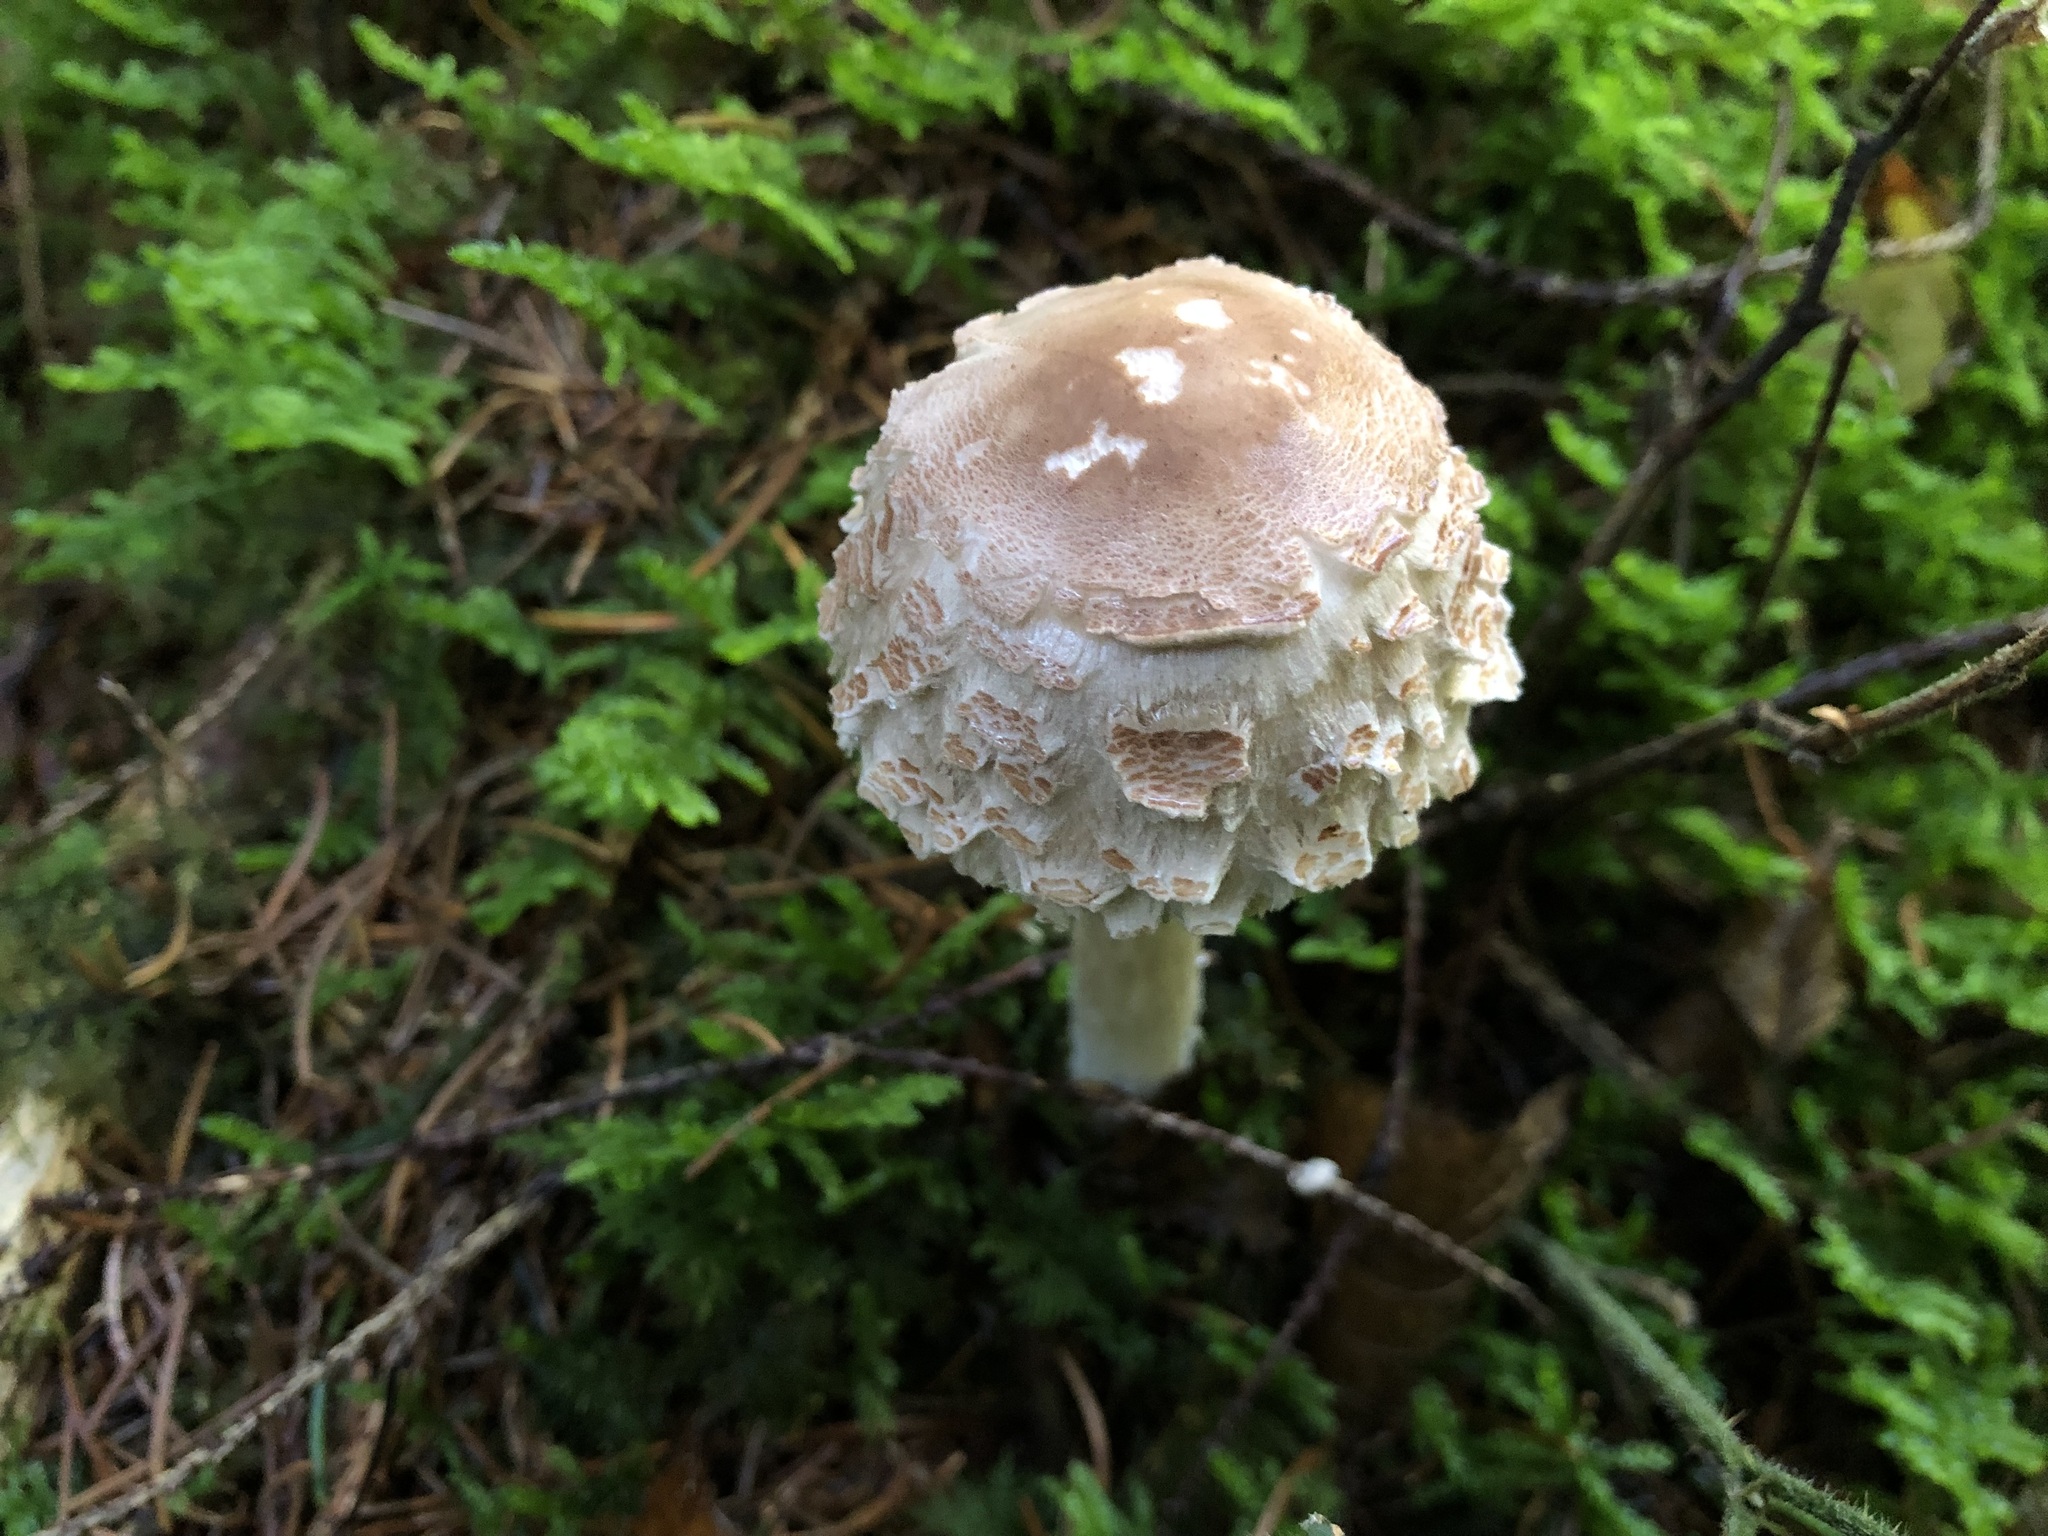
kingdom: Fungi
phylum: Basidiomycota
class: Agaricomycetes
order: Agaricales
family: Agaricaceae
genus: Chlorophyllum
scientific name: Chlorophyllum rhacodes
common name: Shaggy parasol
